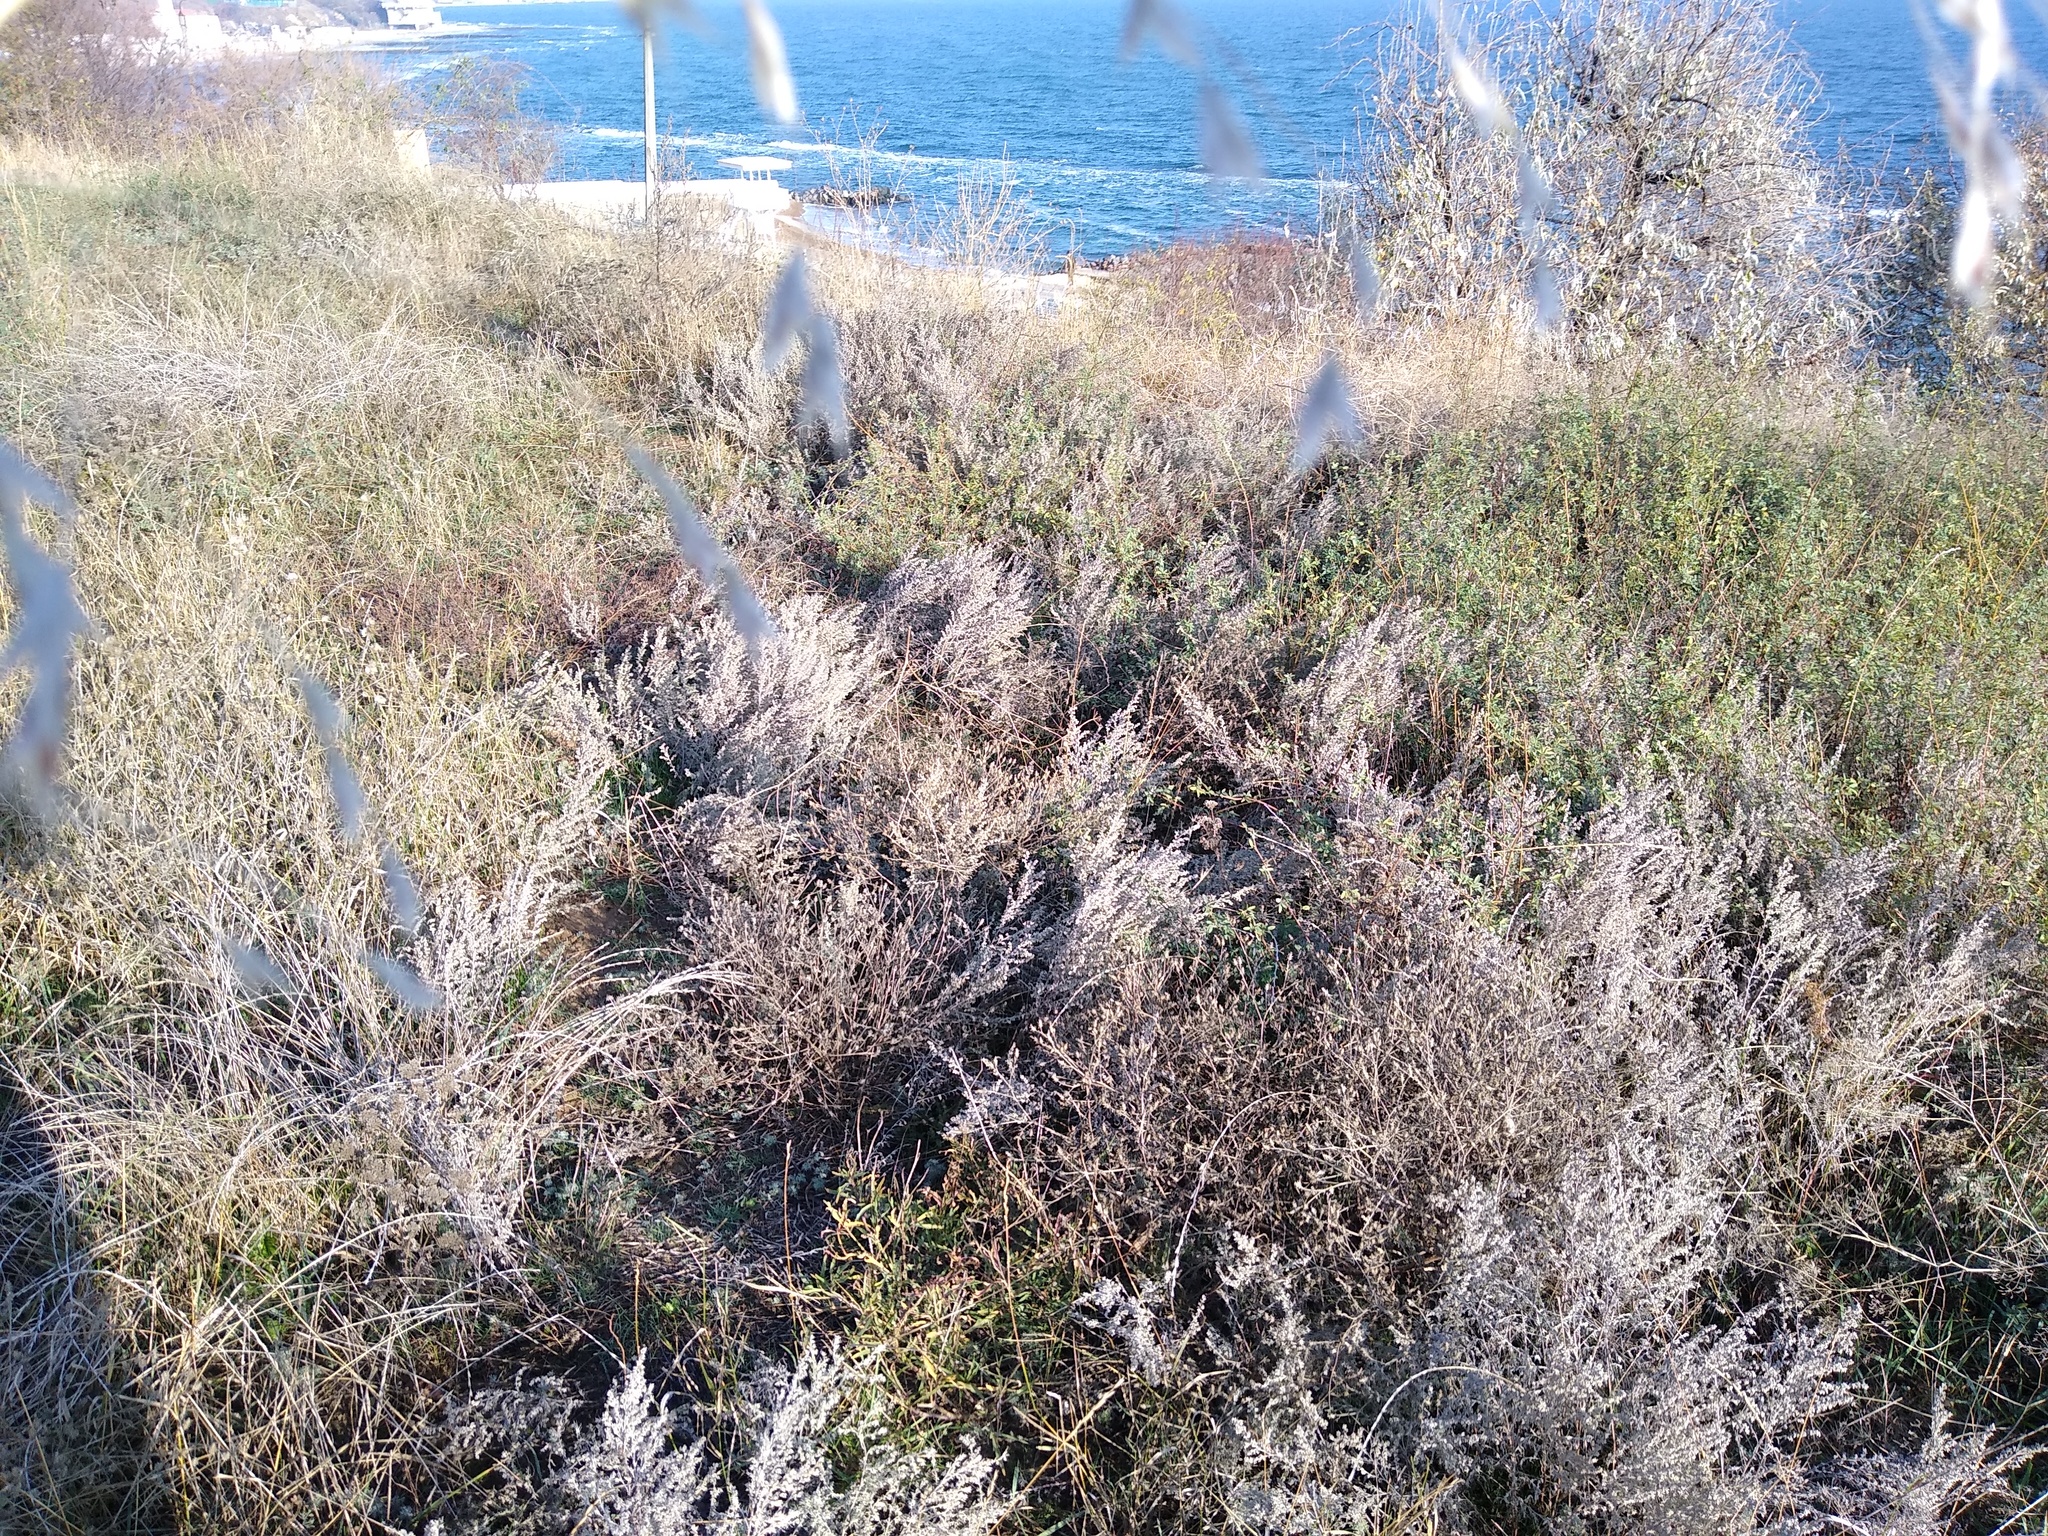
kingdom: Plantae
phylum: Tracheophyta
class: Magnoliopsida
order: Asterales
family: Asteraceae
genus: Artemisia
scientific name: Artemisia austriaca
